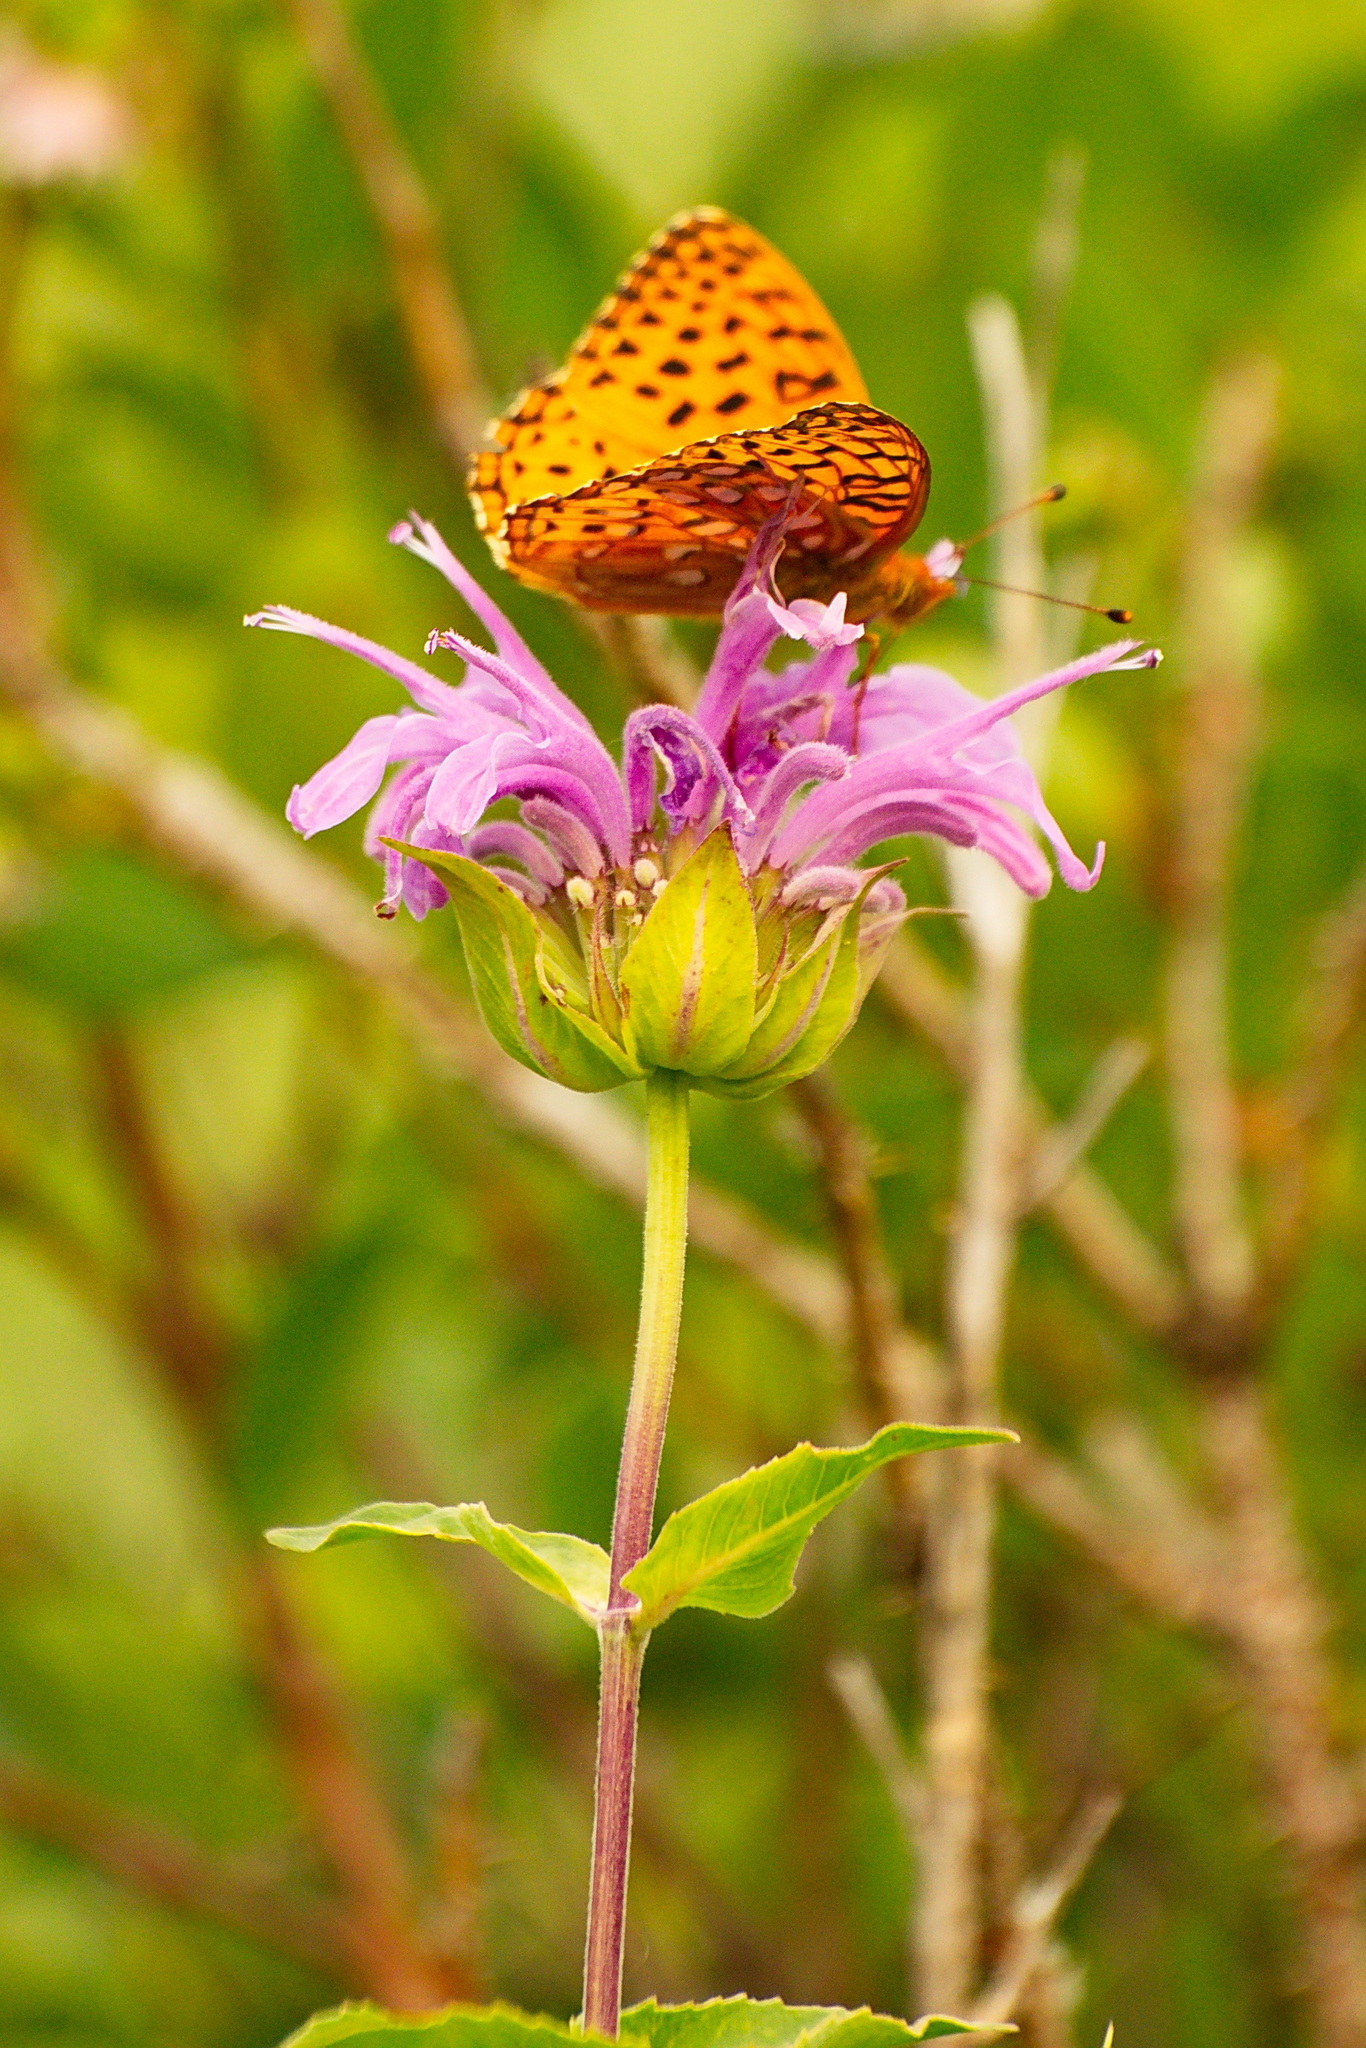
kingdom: Plantae
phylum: Tracheophyta
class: Magnoliopsida
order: Lamiales
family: Lamiaceae
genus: Monarda
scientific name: Monarda fistulosa
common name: Purple beebalm
